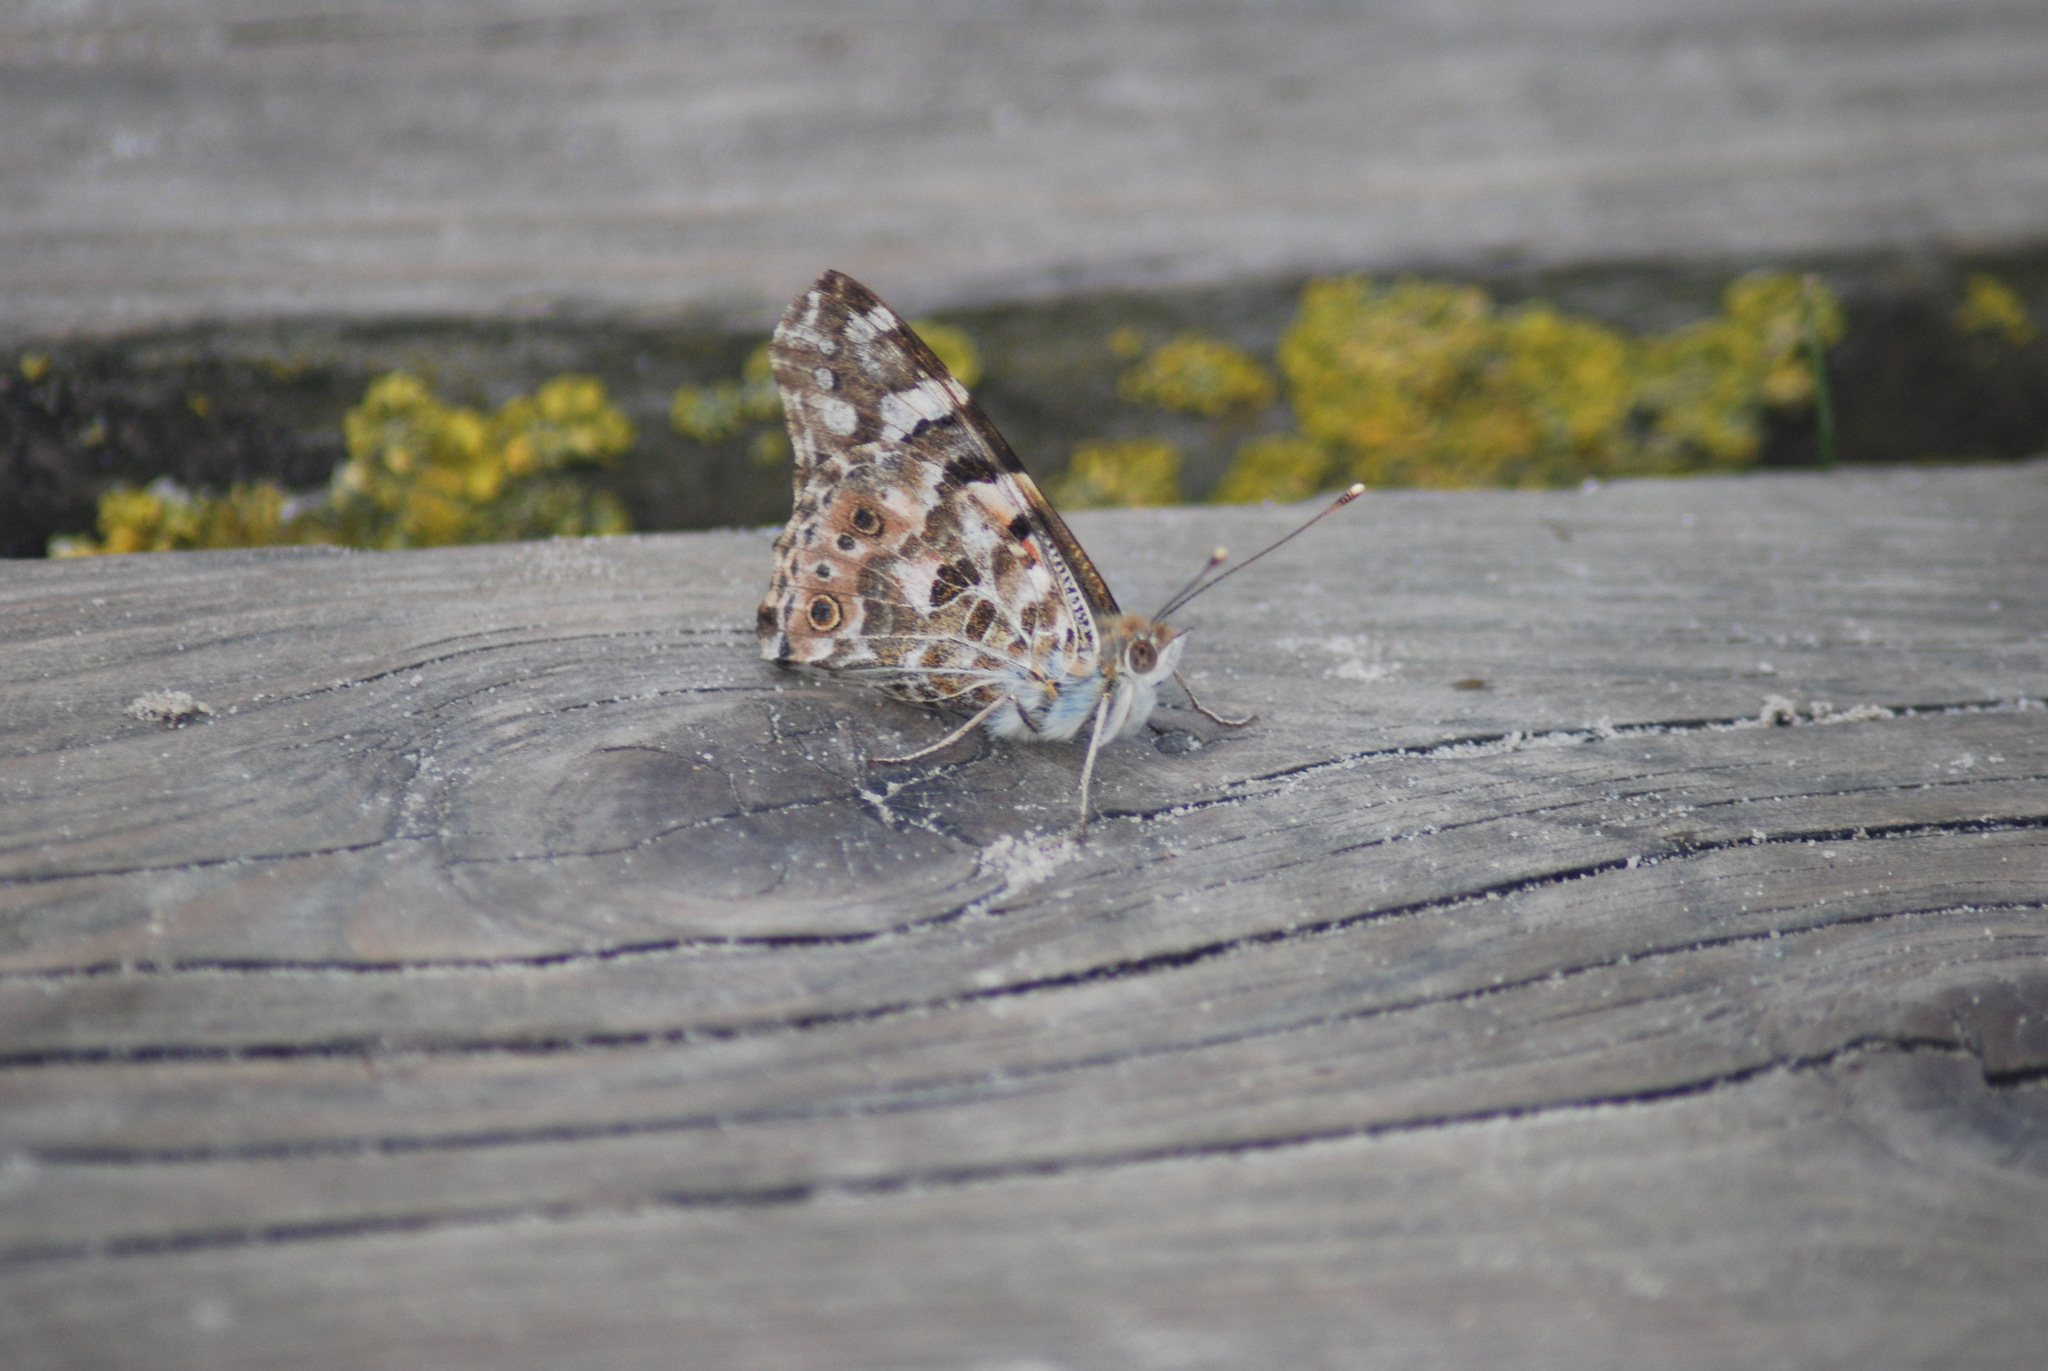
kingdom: Animalia
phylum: Arthropoda
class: Insecta
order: Lepidoptera
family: Nymphalidae
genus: Vanessa
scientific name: Vanessa cardui
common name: Painted lady
